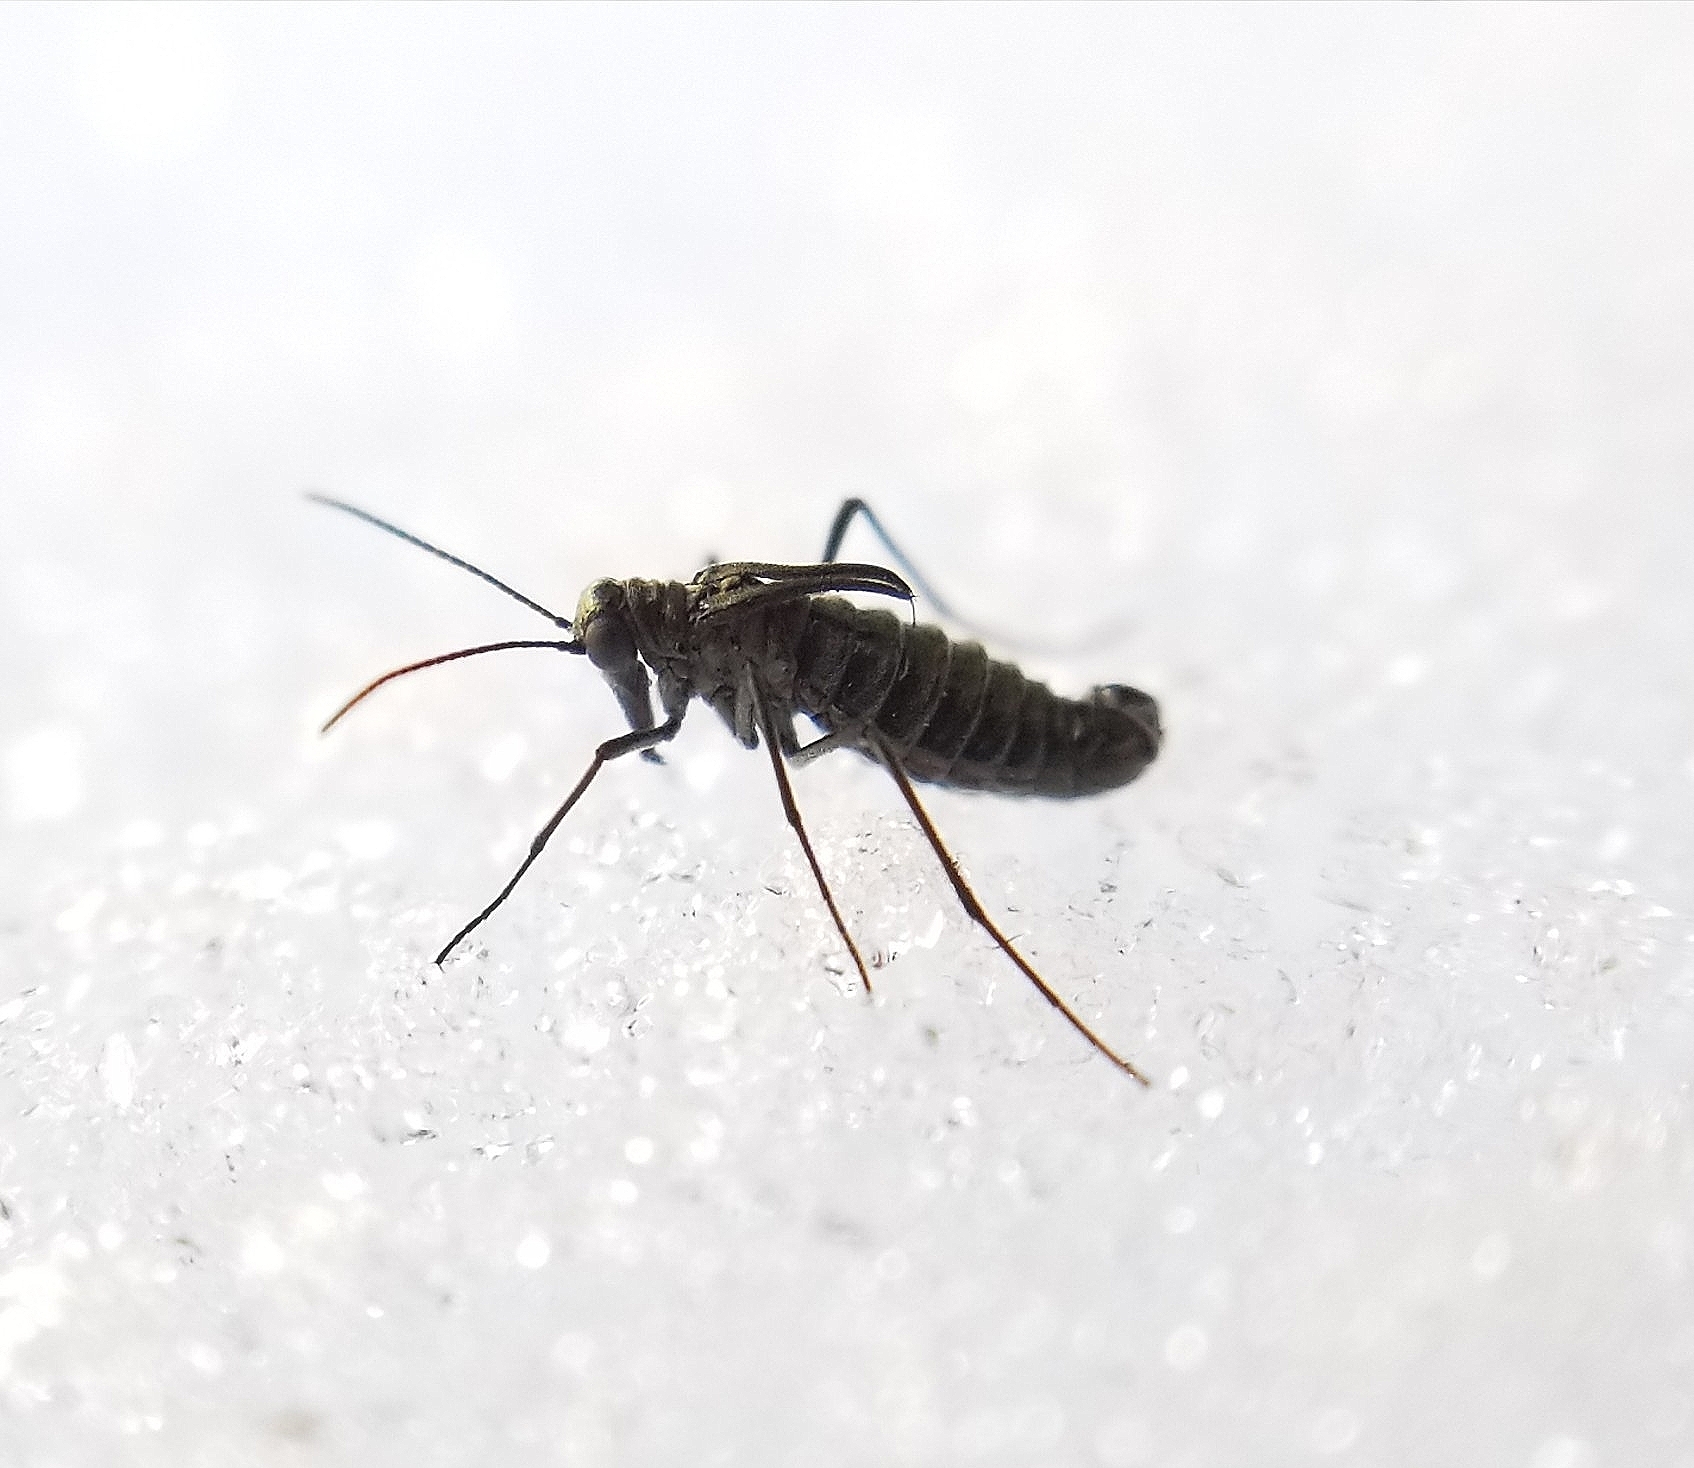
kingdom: Animalia
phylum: Arthropoda
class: Insecta
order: Mecoptera
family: Boreidae
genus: Boreus
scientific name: Boreus coloradensis
